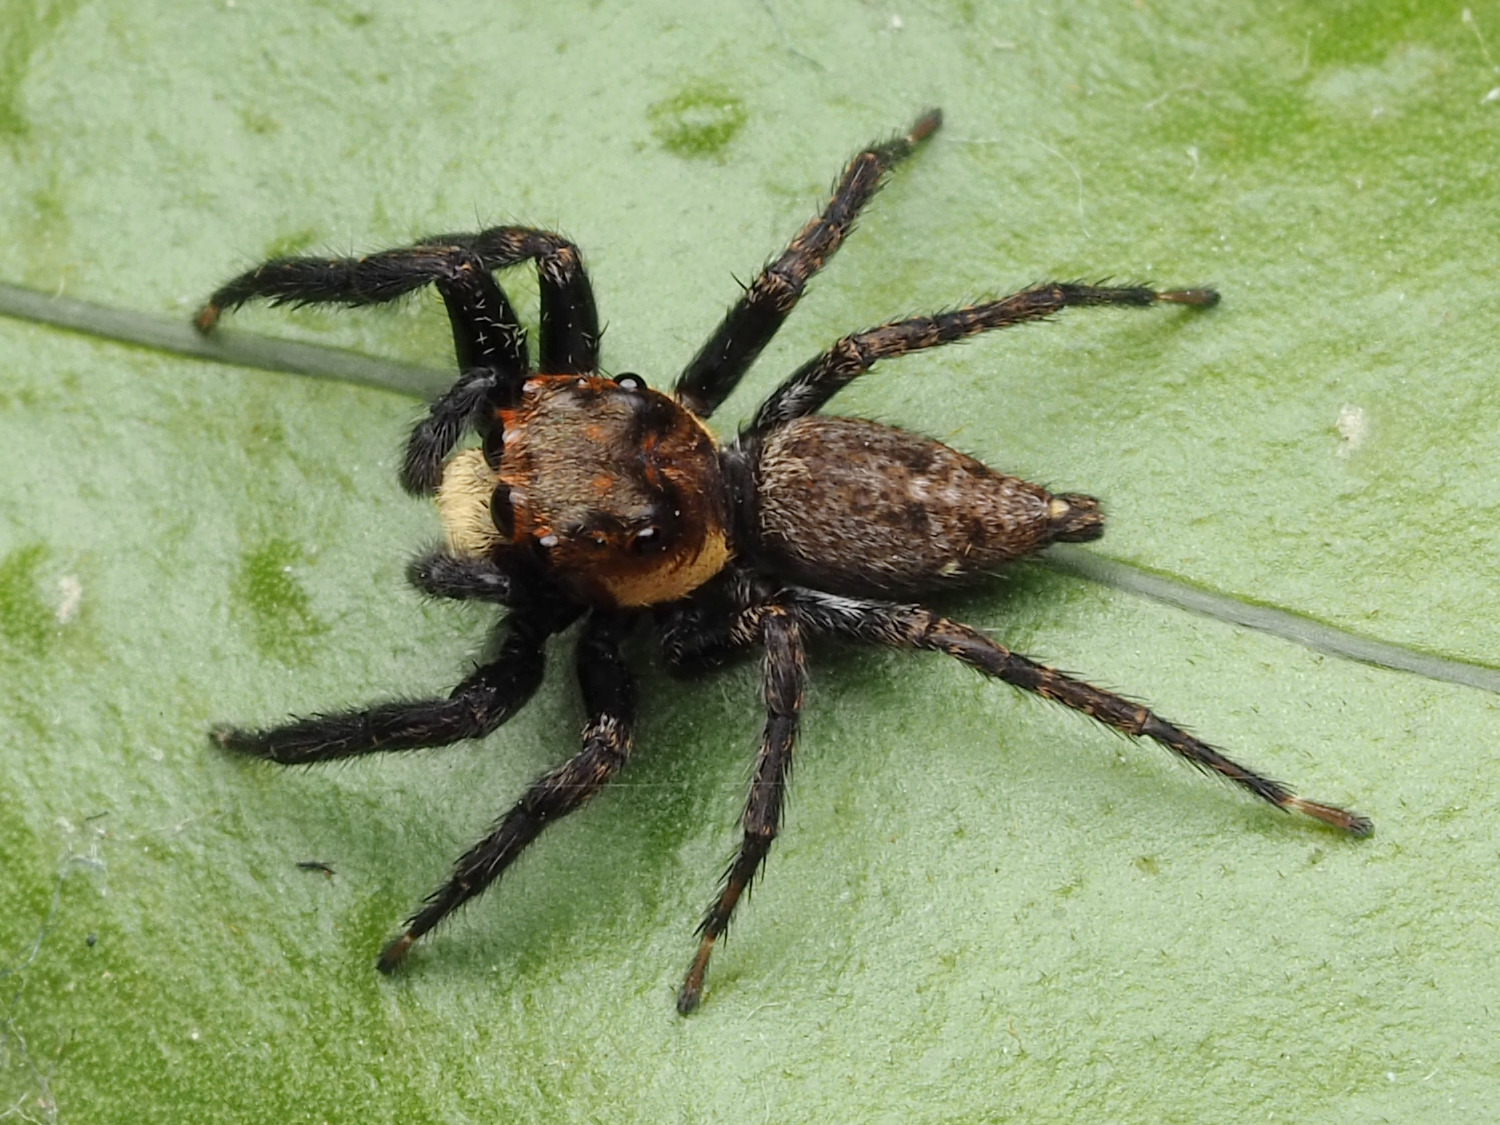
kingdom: Animalia
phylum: Arthropoda
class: Arachnida
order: Araneae
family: Salticidae
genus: Triggella
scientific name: Triggella infuscata
